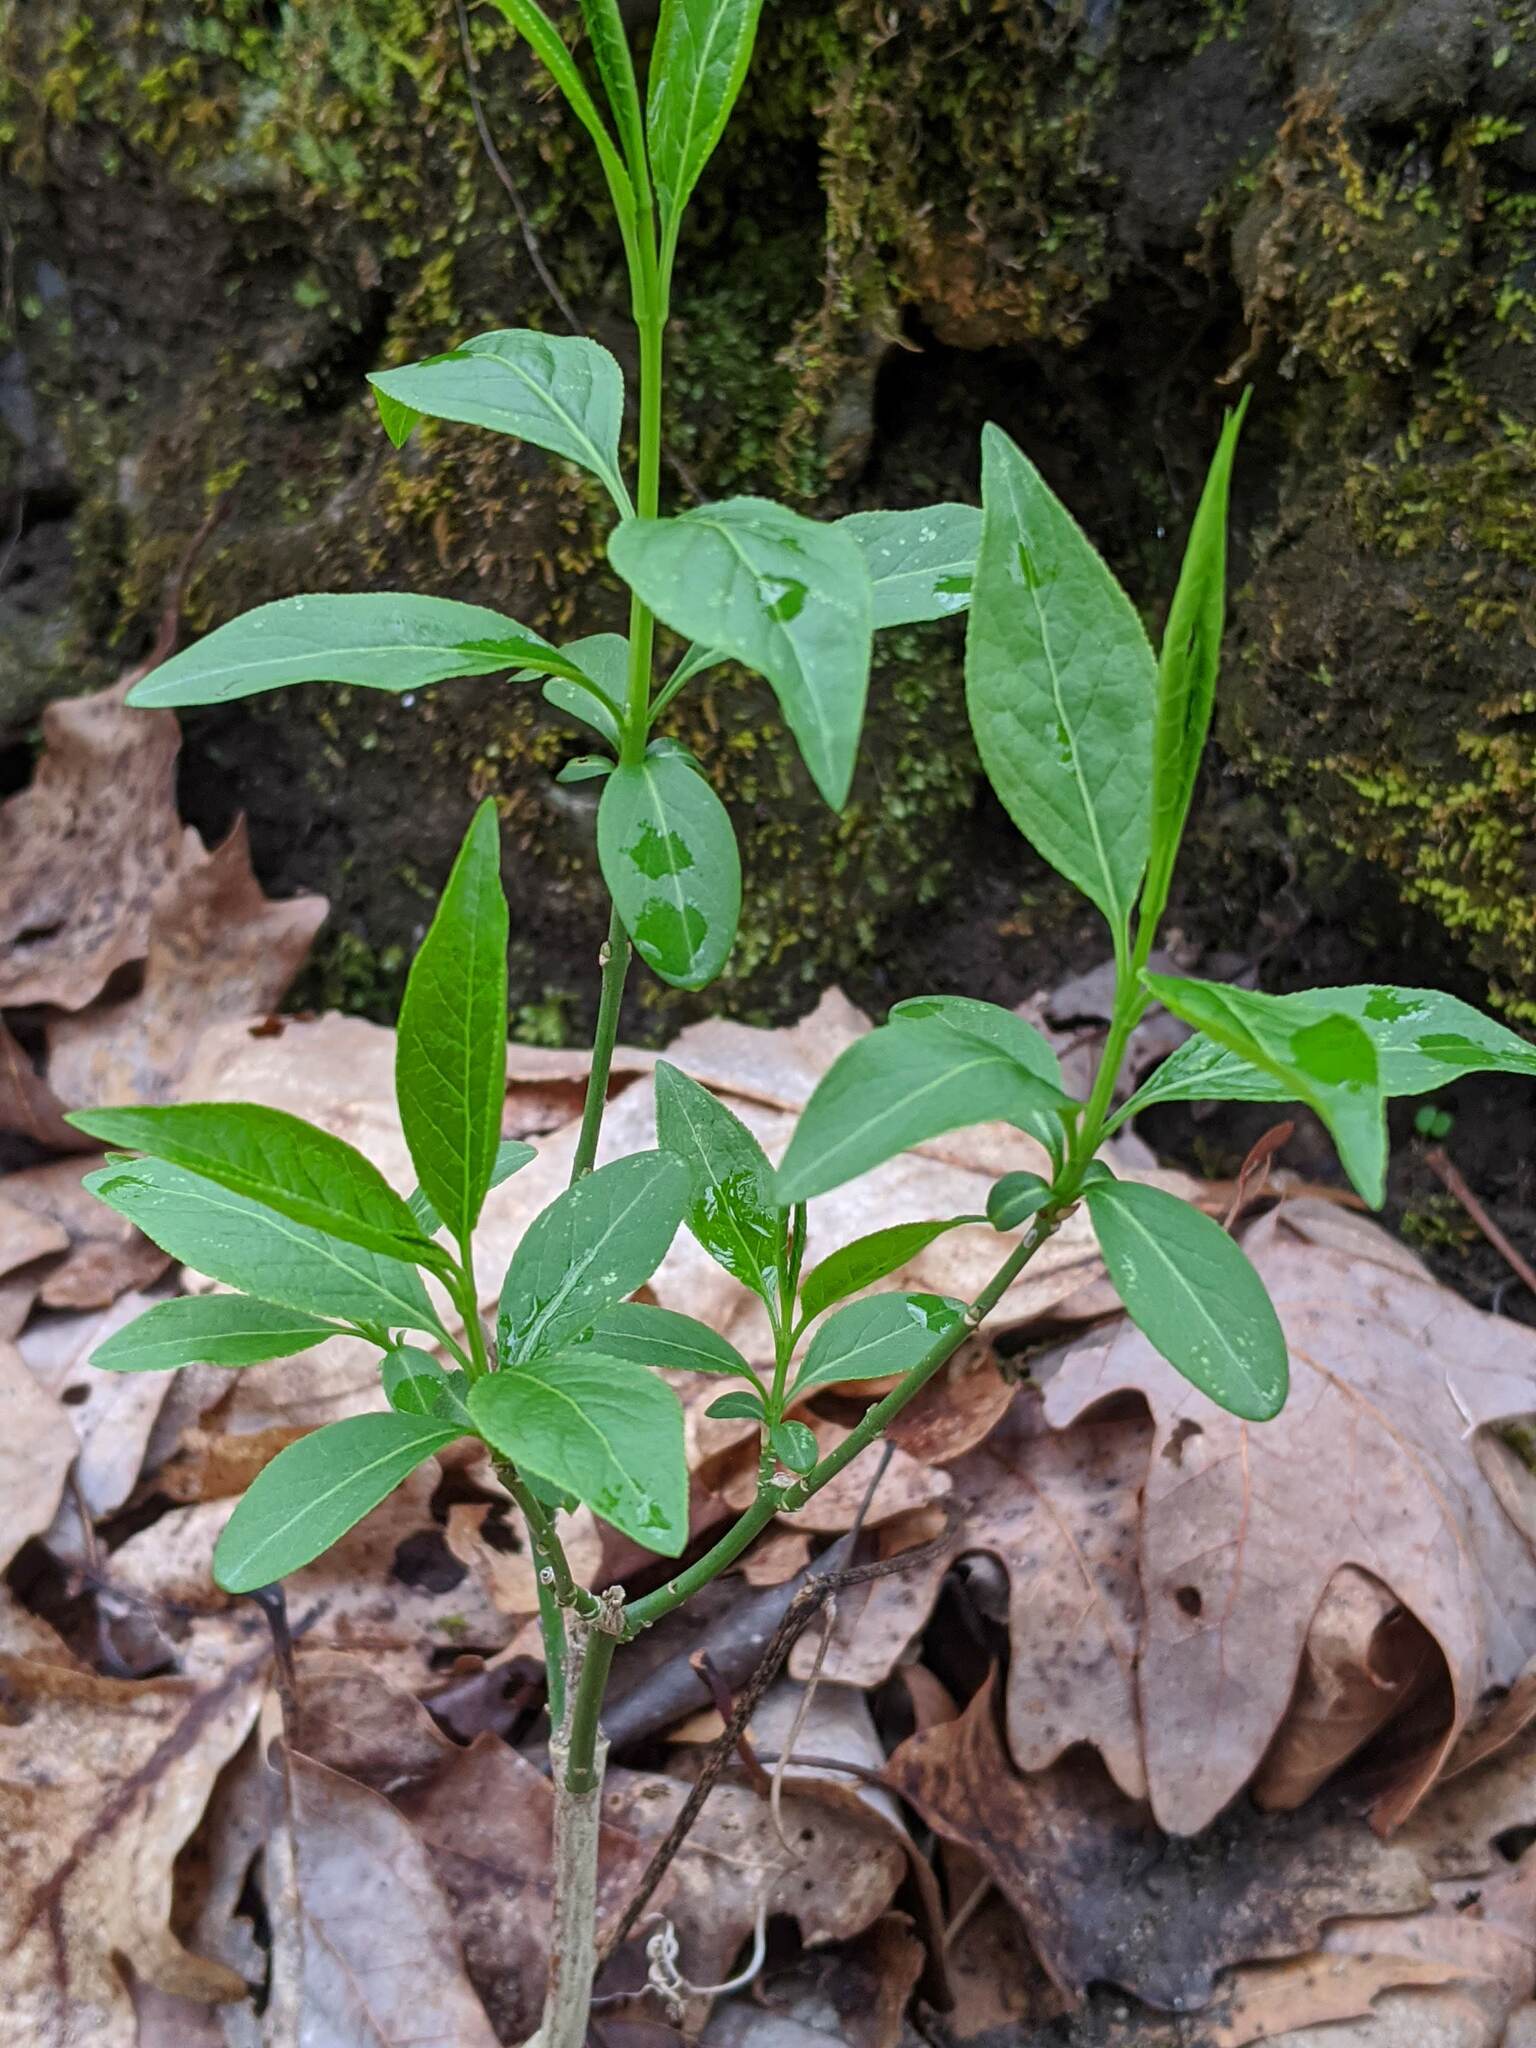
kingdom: Plantae
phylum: Tracheophyta
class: Magnoliopsida
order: Celastrales
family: Celastraceae
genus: Euonymus
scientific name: Euonymus atropurpureus
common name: Eastern wahoo
